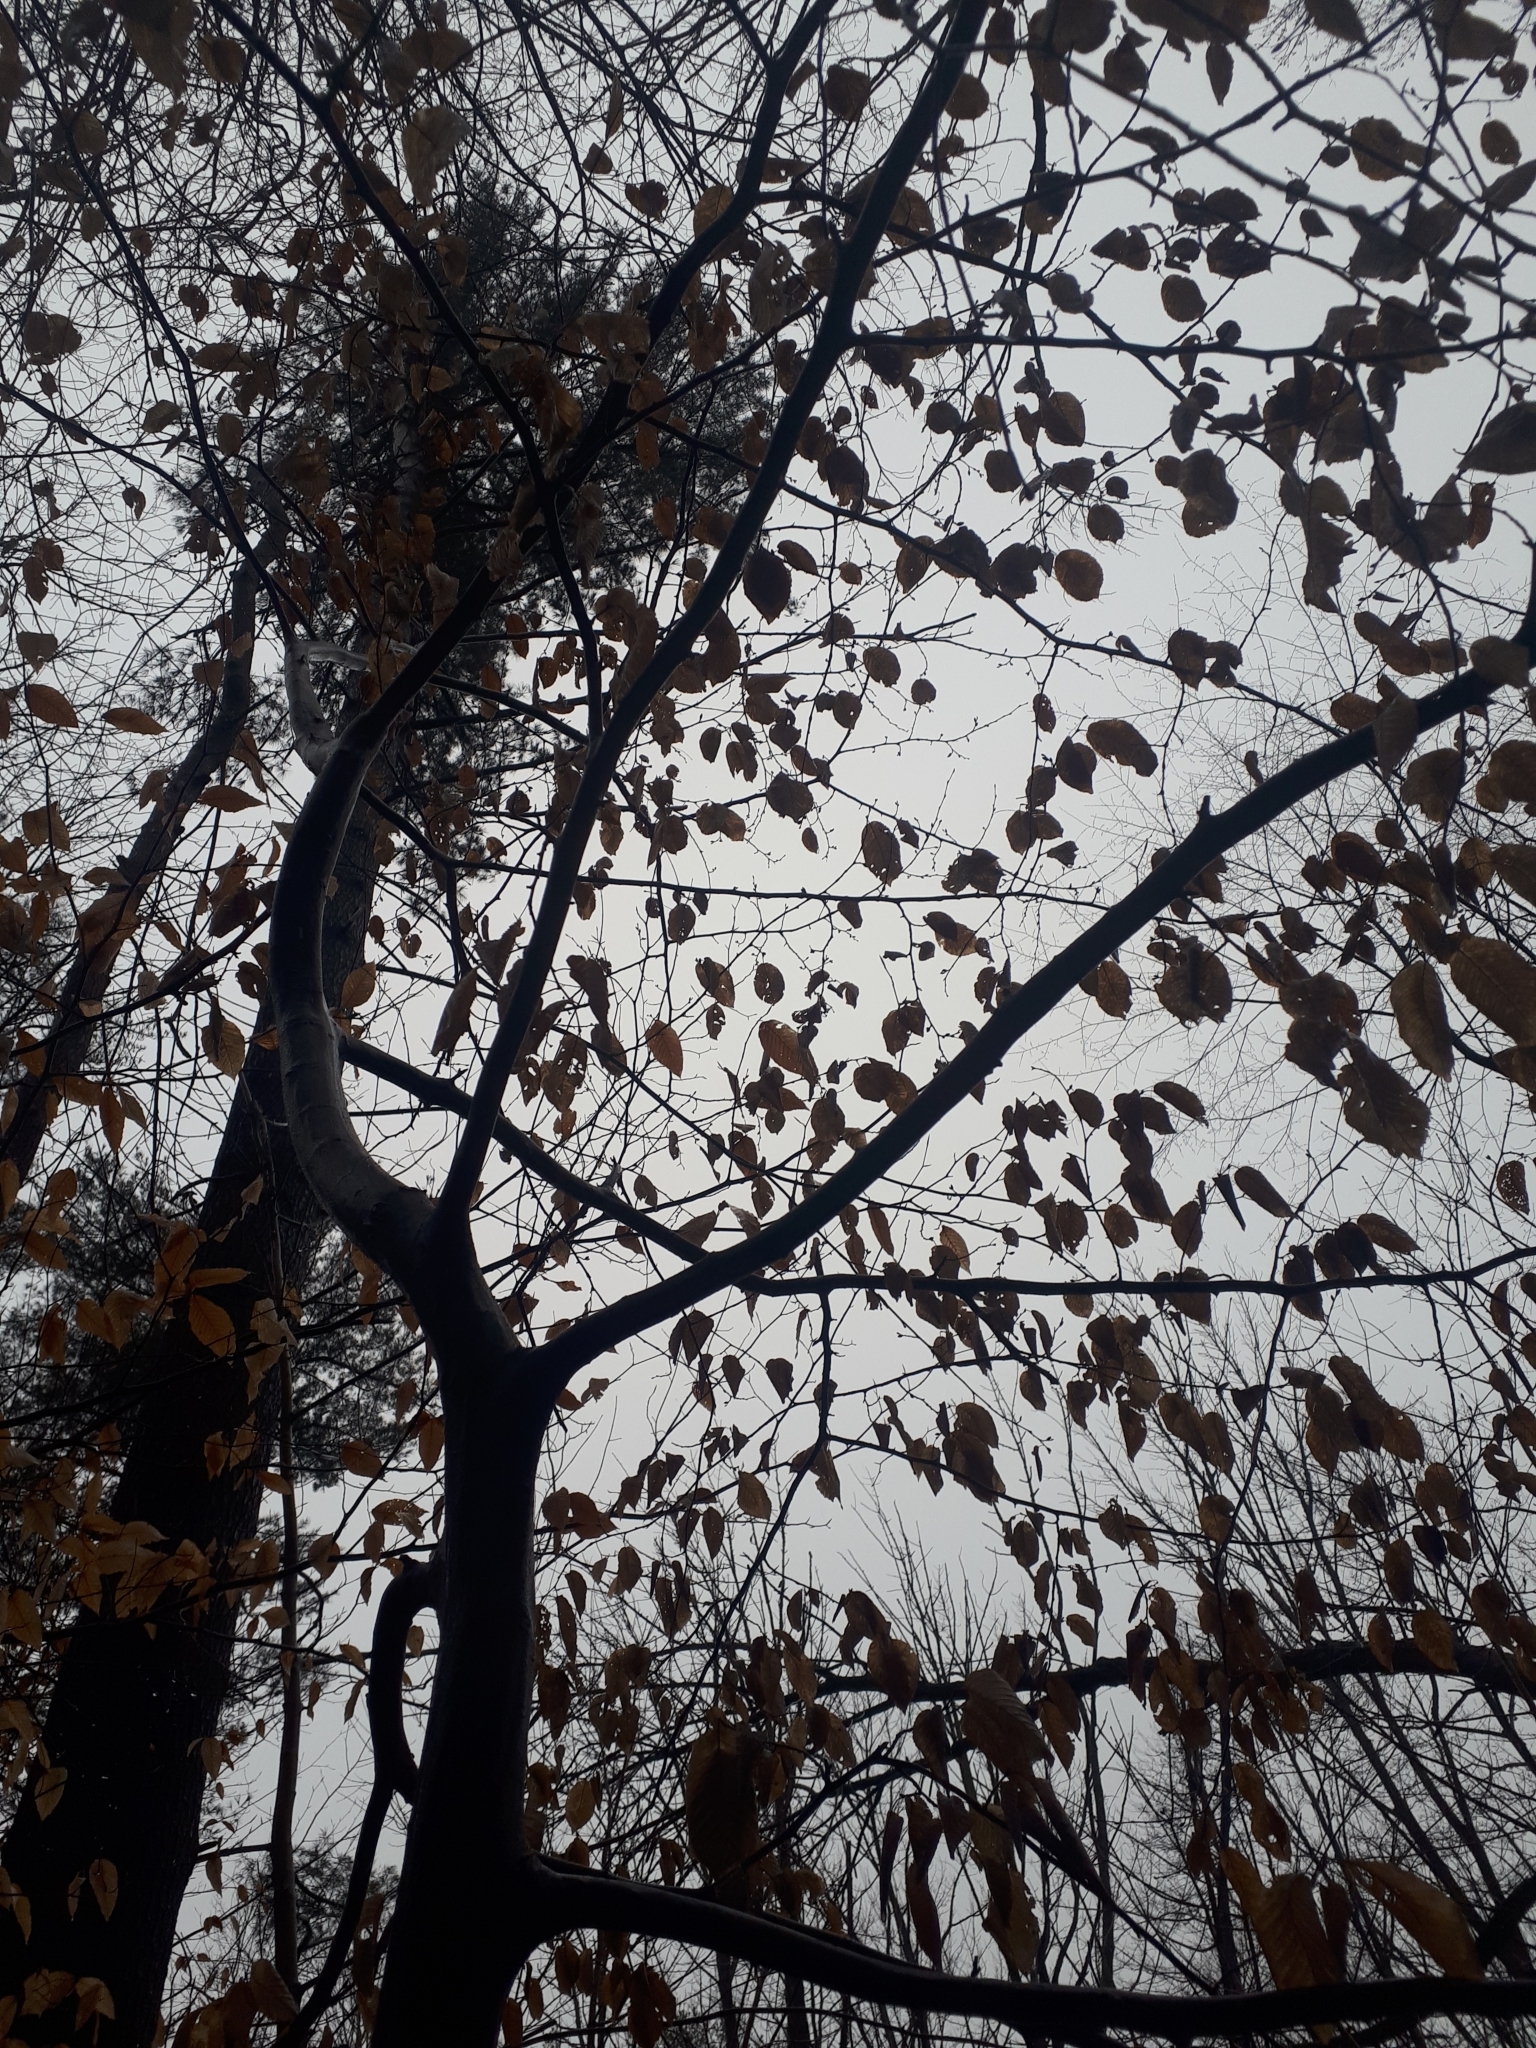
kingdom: Plantae
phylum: Tracheophyta
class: Magnoliopsida
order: Fagales
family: Betulaceae
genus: Carpinus
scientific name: Carpinus caroliniana
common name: American hornbeam
